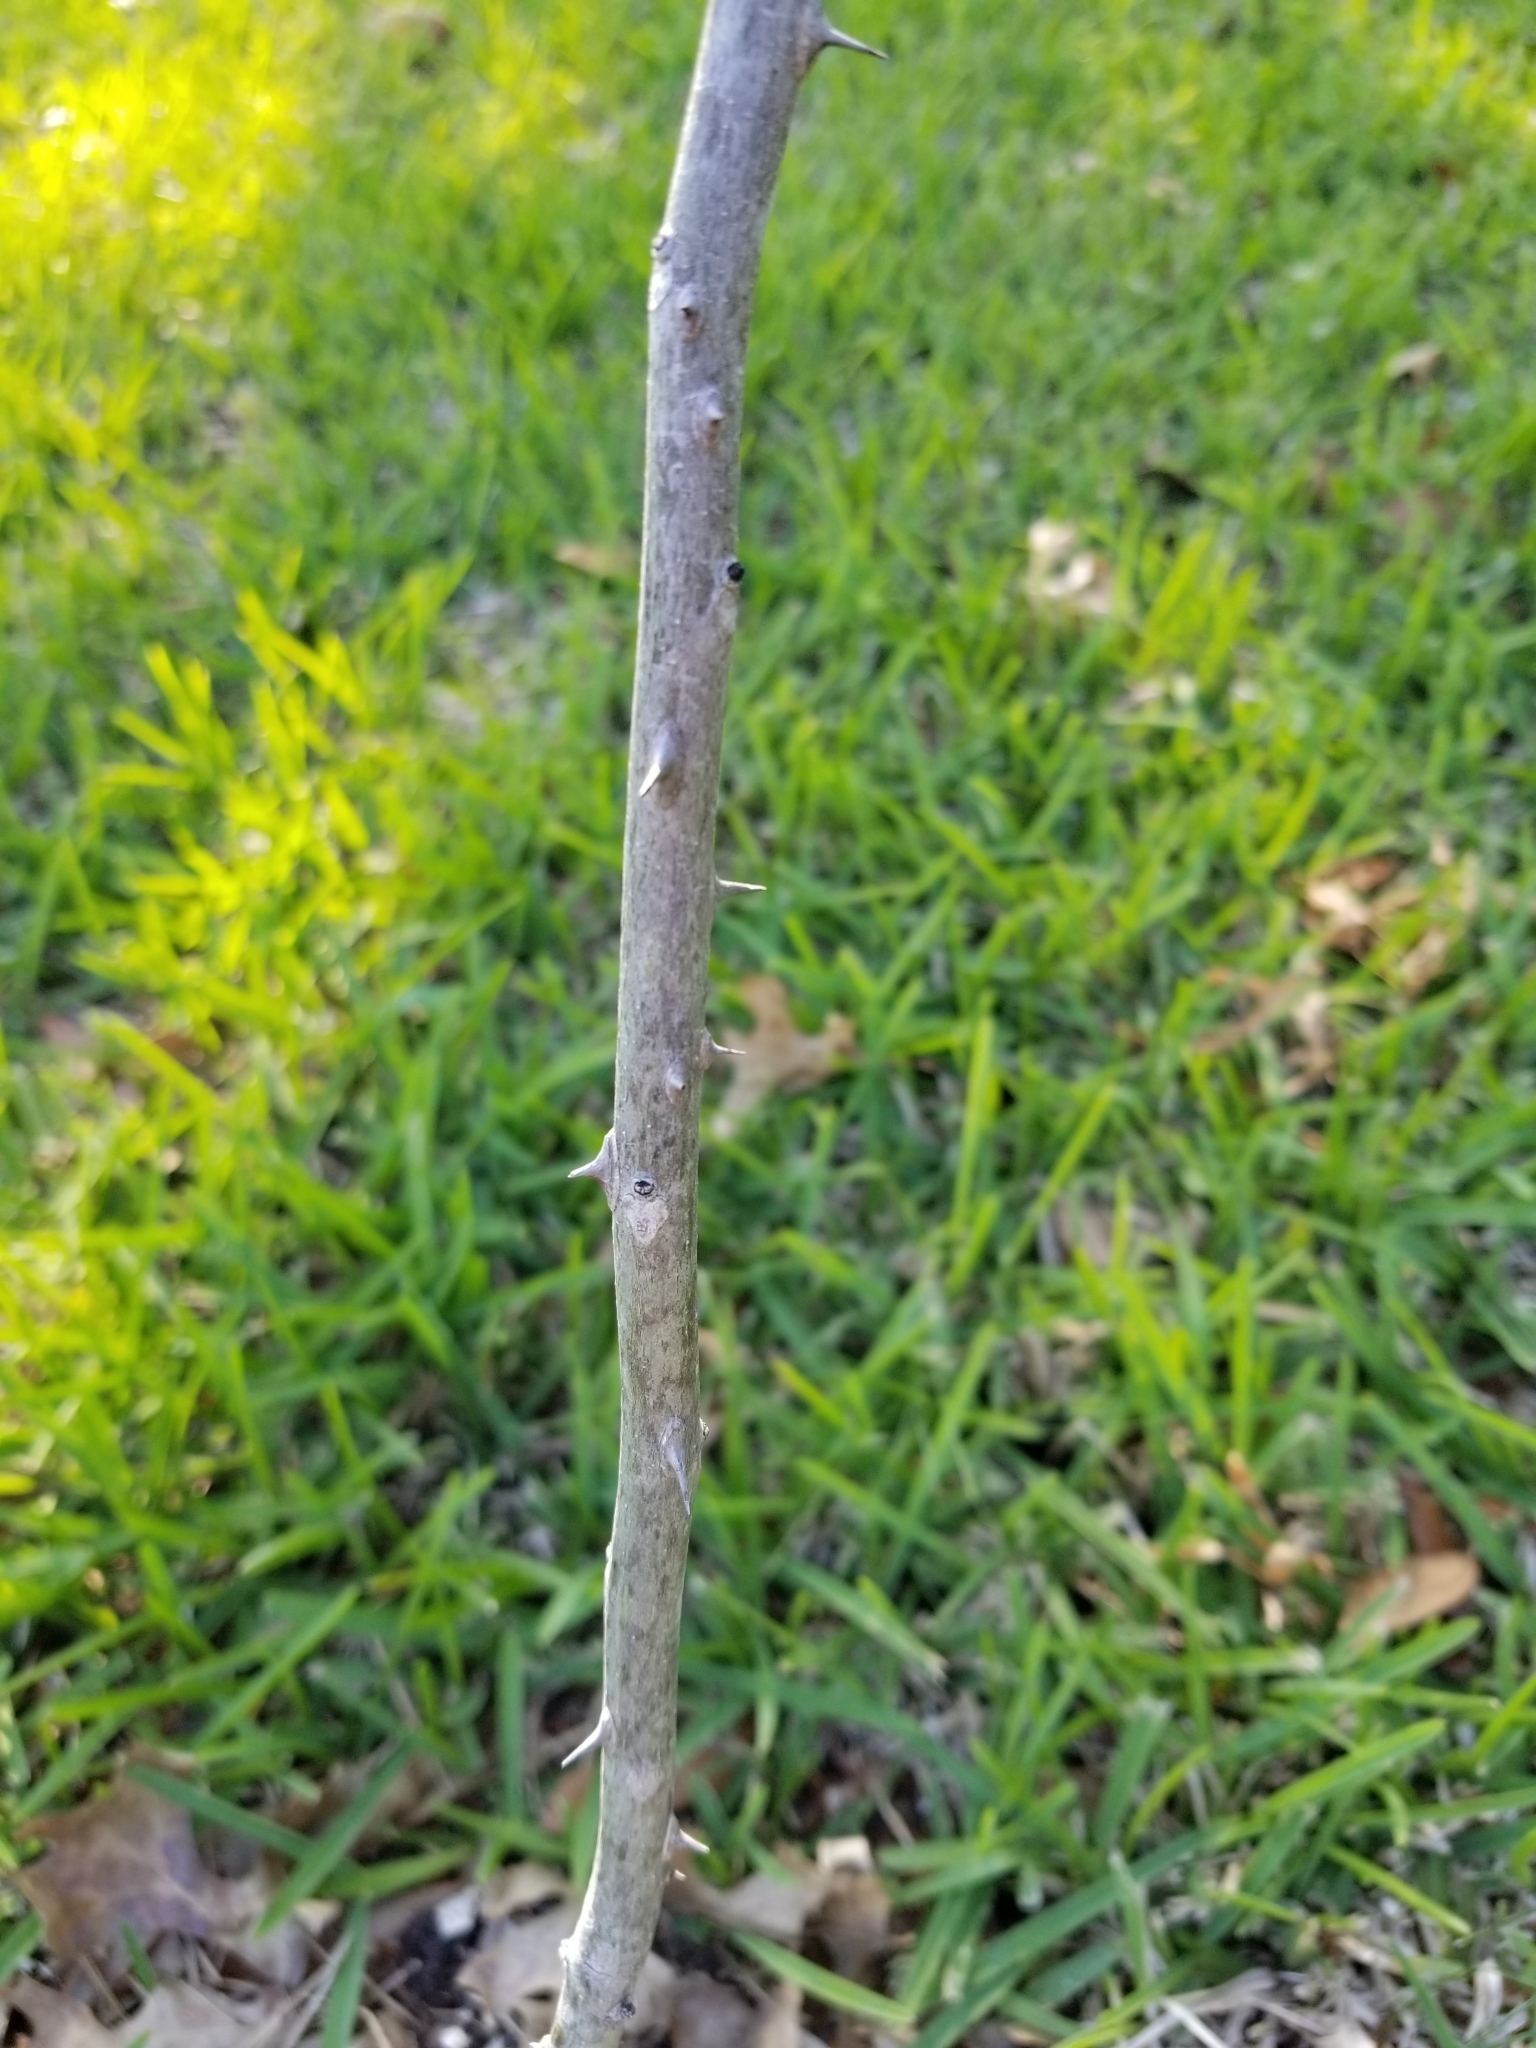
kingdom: Plantae
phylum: Tracheophyta
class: Magnoliopsida
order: Sapindales
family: Rutaceae
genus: Zanthoxylum
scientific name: Zanthoxylum clava-herculis
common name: Hercules'-club
